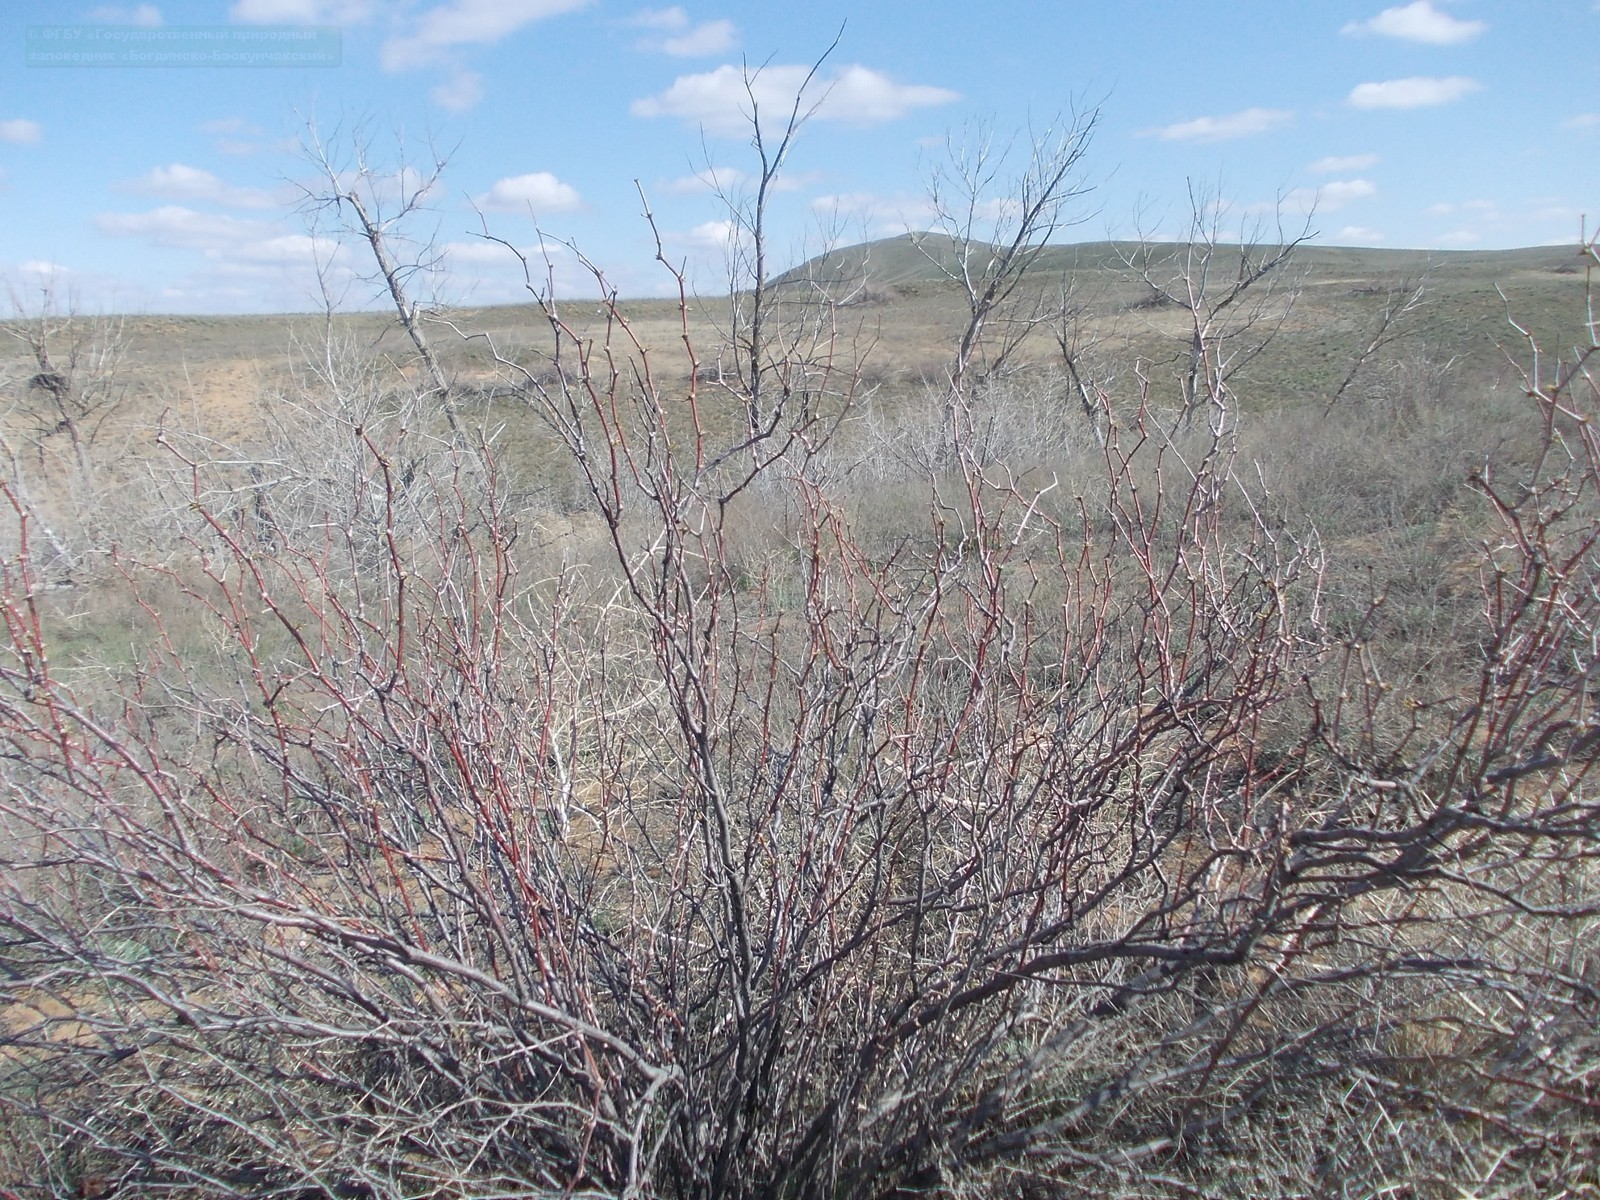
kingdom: Plantae
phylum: Tracheophyta
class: Magnoliopsida
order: Caryophyllales
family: Polygonaceae
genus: Calligonum
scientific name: Calligonum aphyllum
